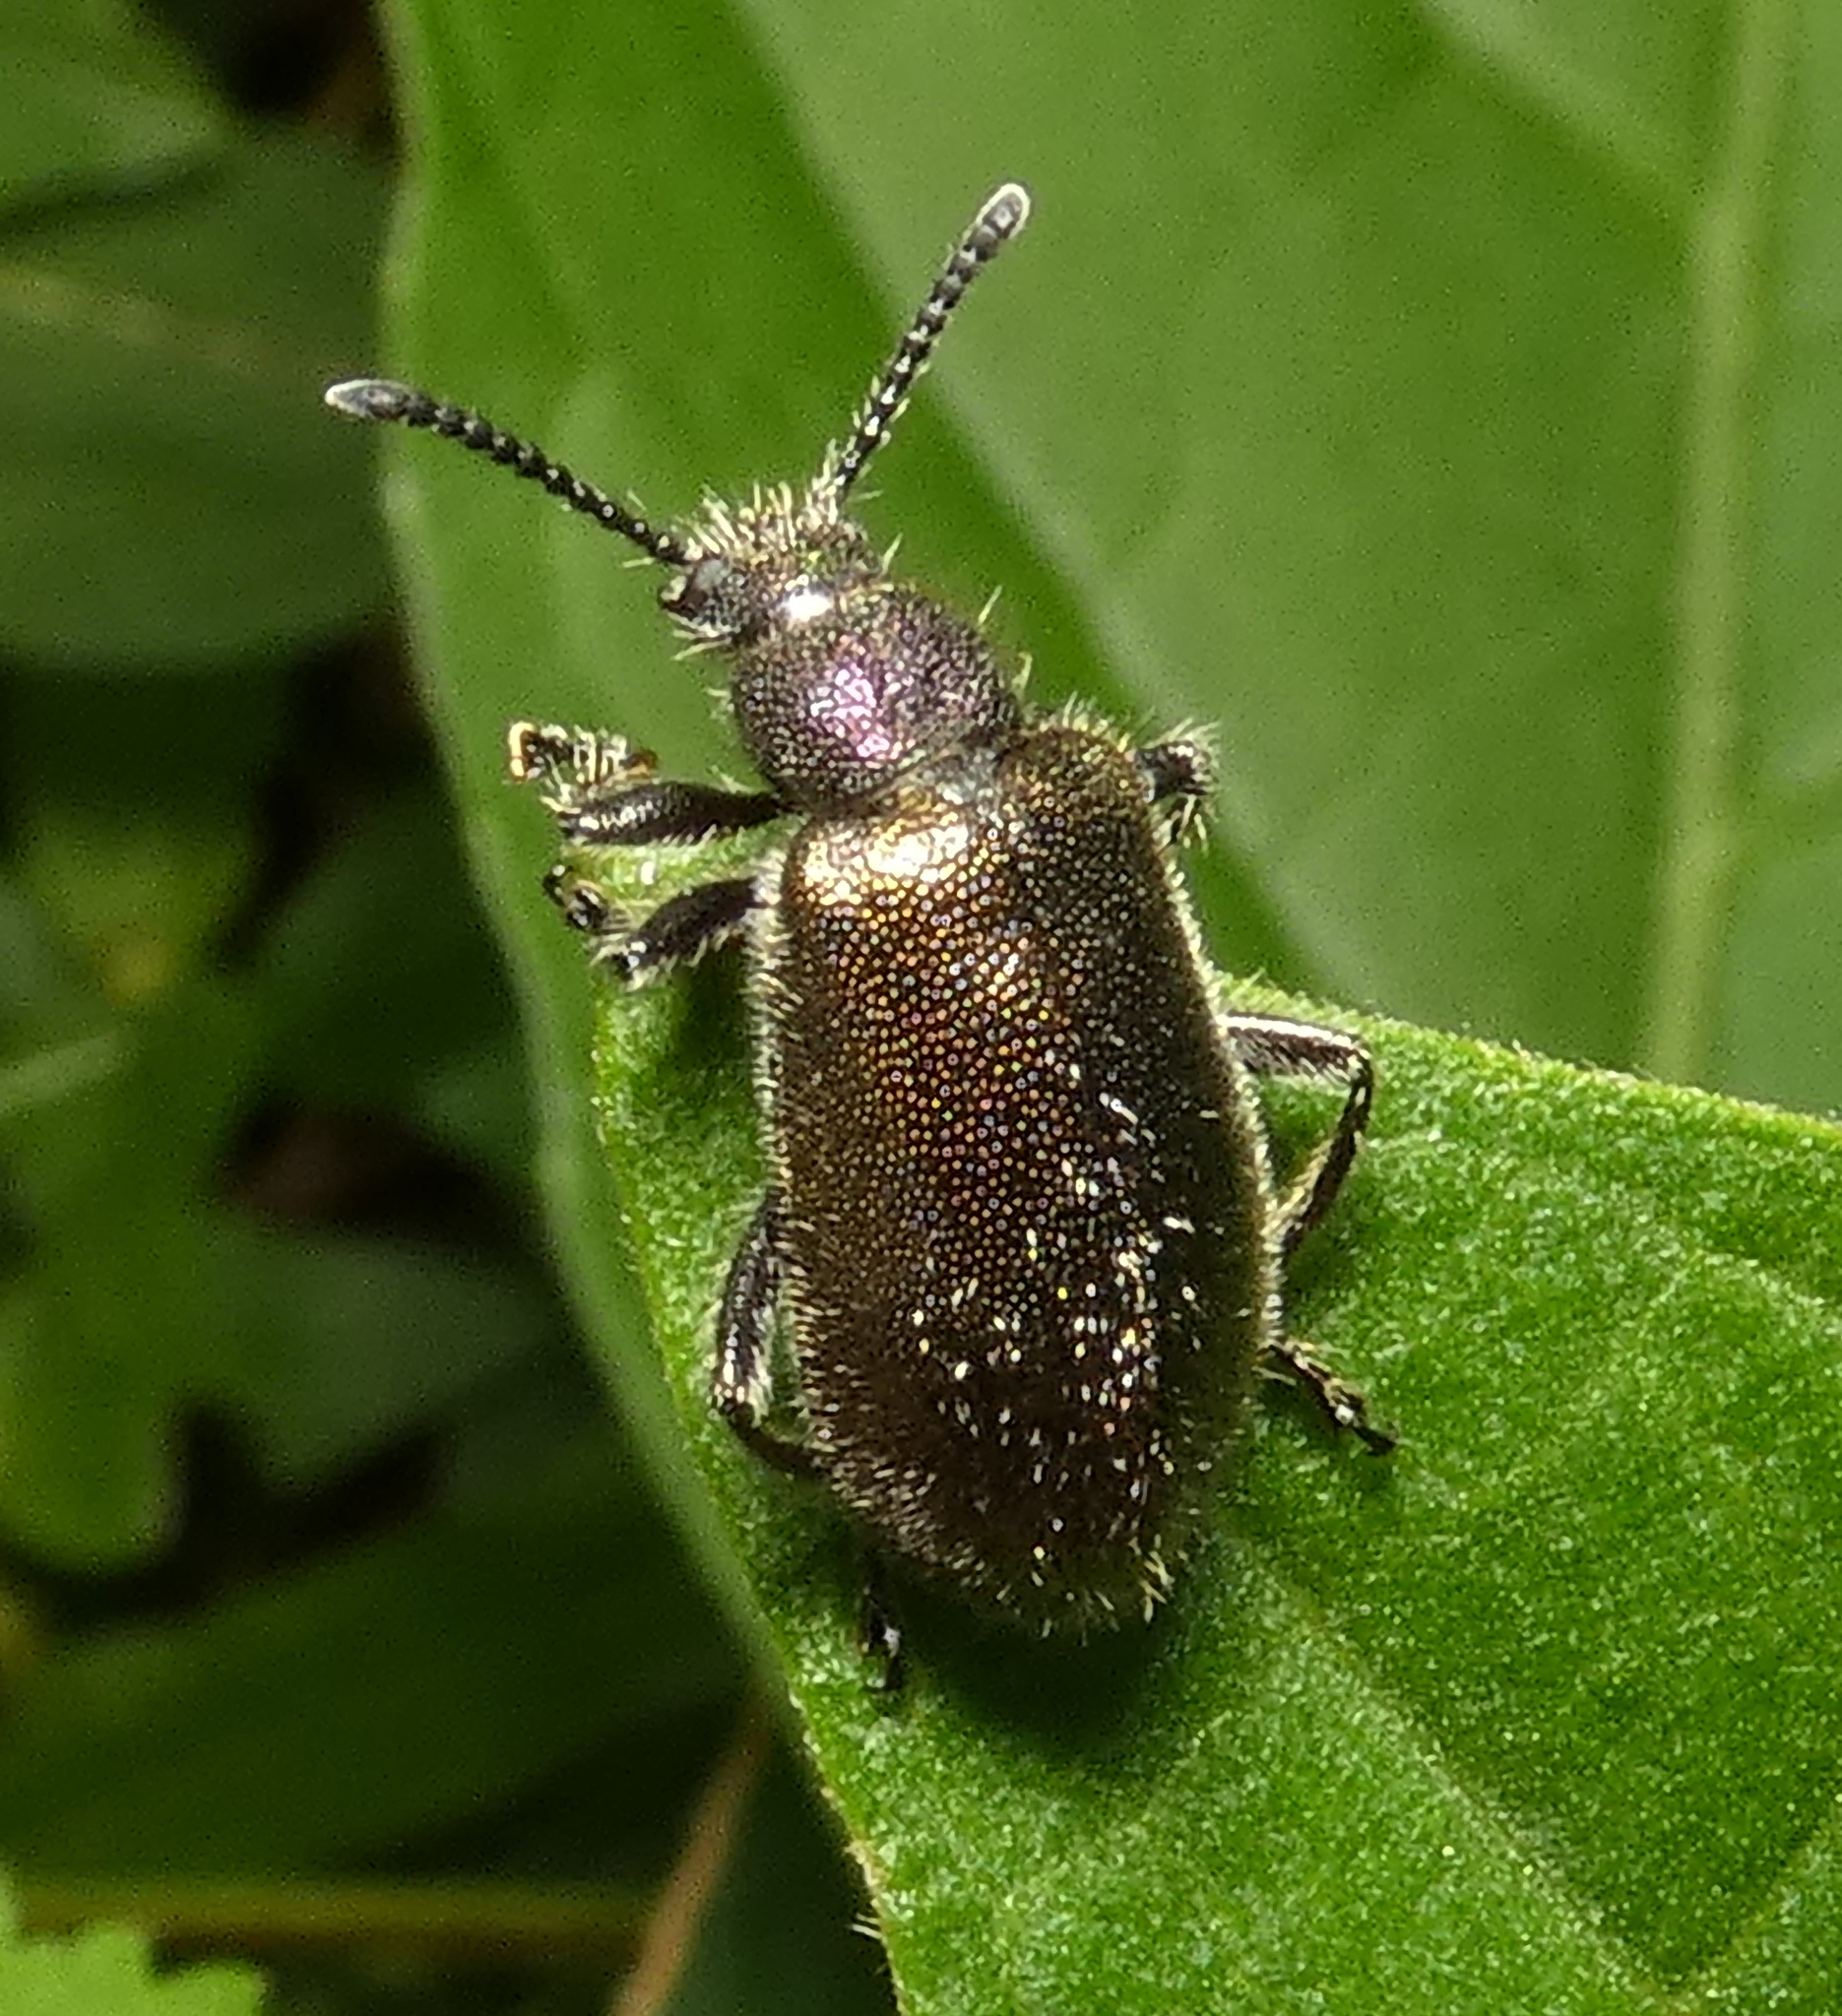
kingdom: Animalia
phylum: Arthropoda
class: Insecta
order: Coleoptera
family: Tenebrionidae
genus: Lagria
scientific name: Lagria villosa
